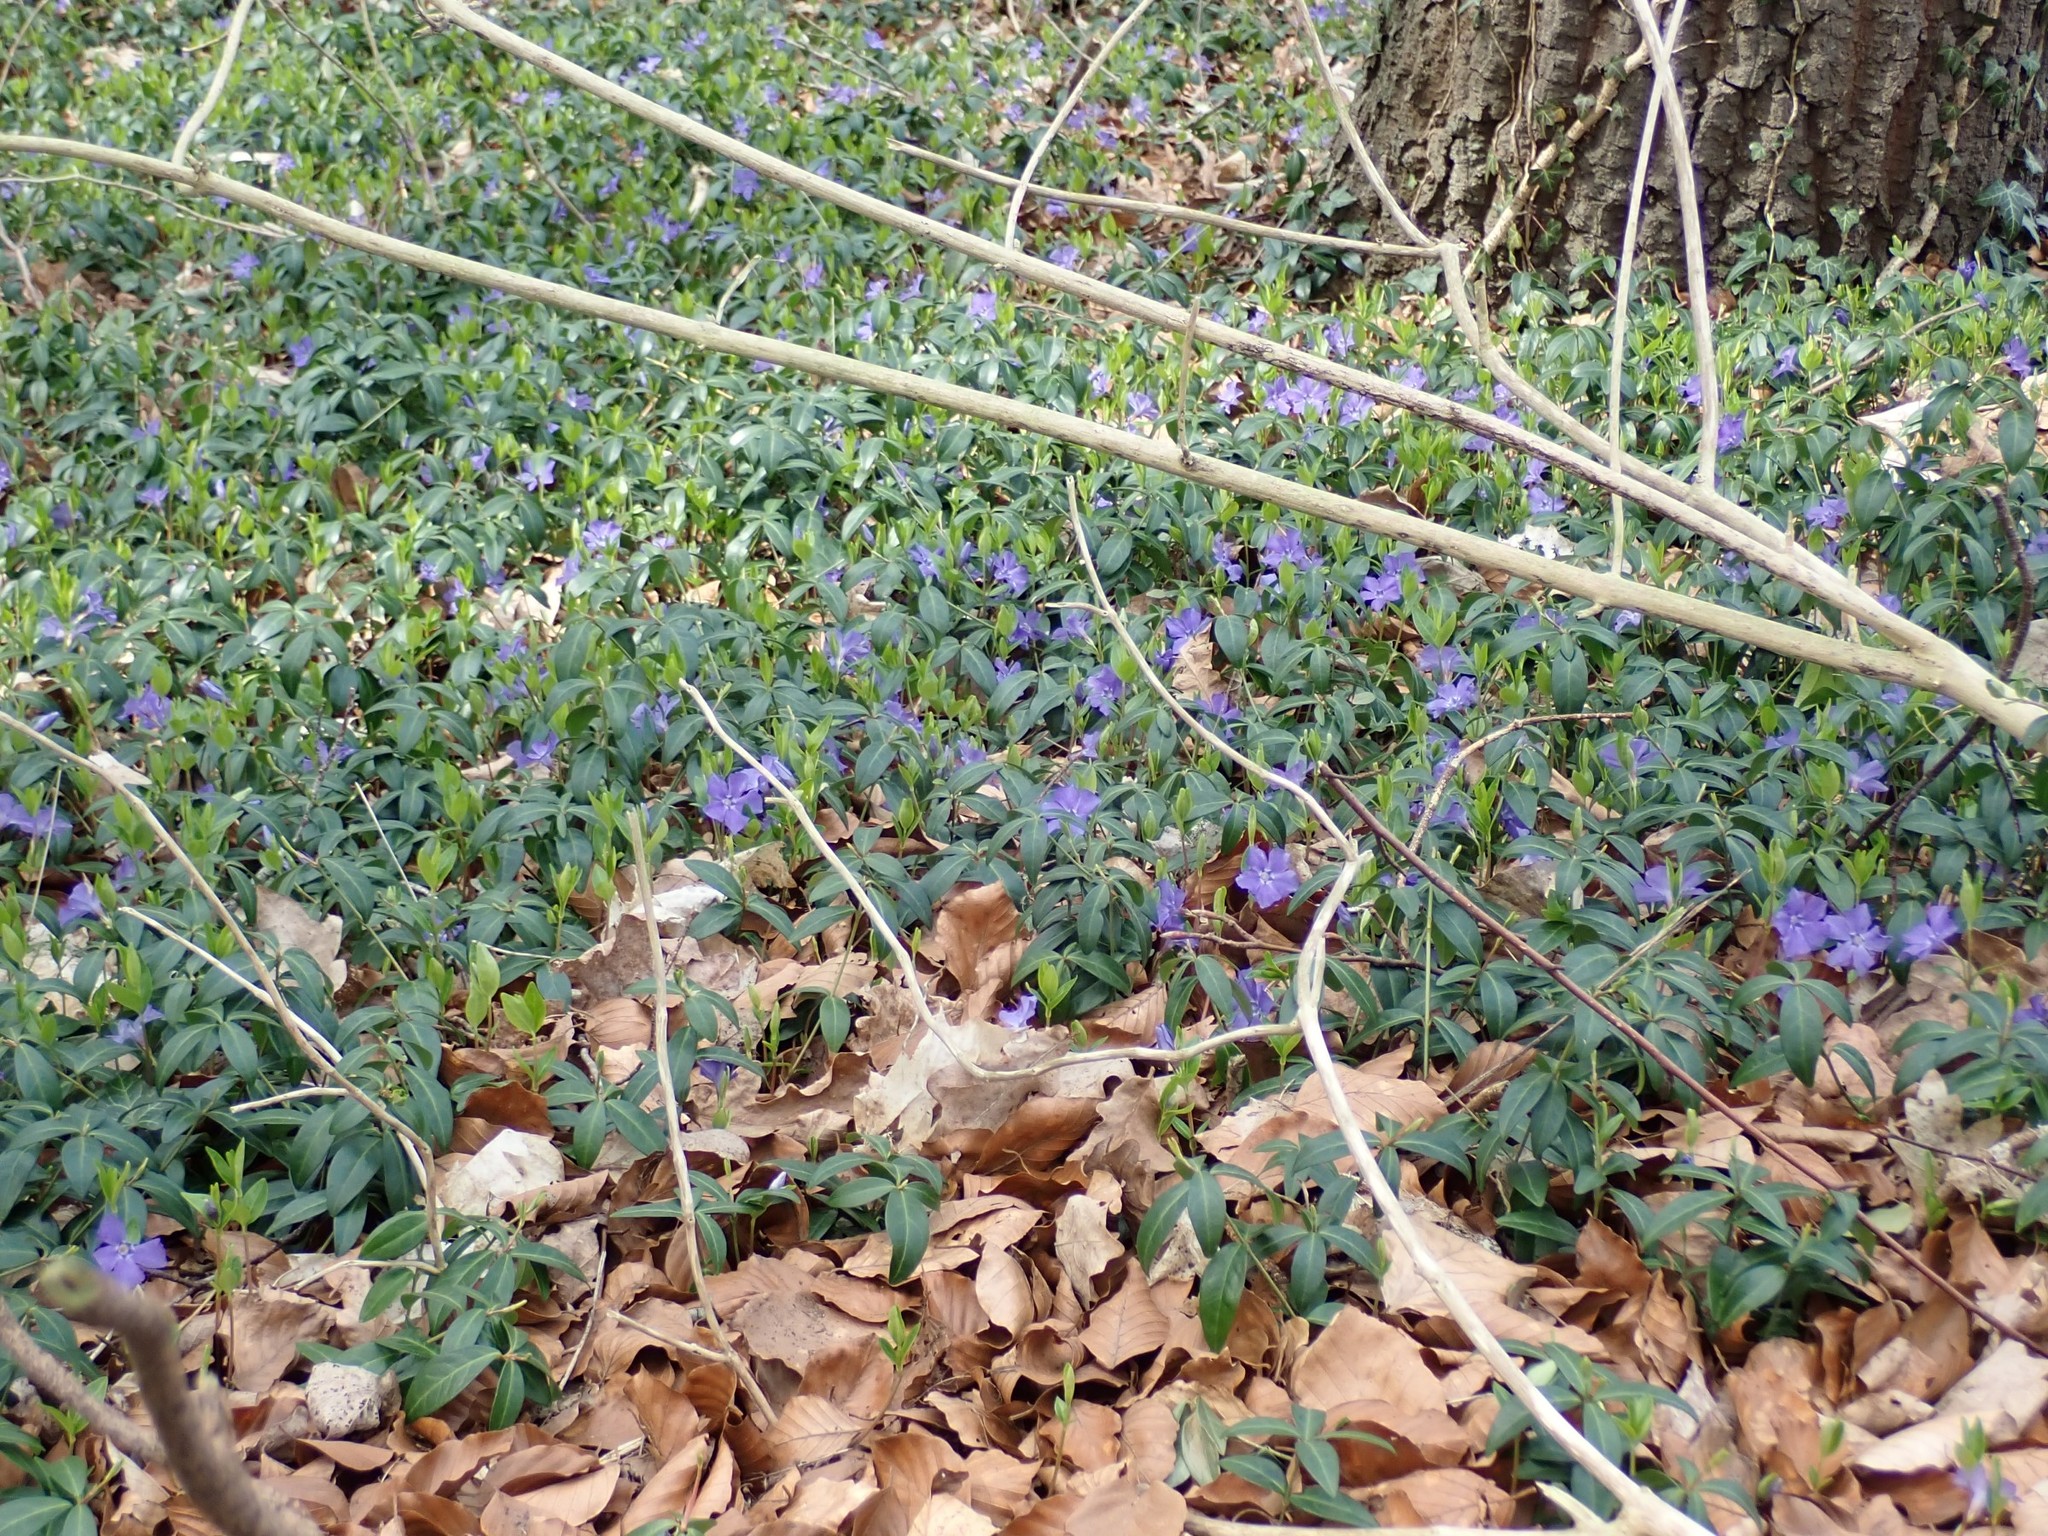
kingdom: Plantae
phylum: Tracheophyta
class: Magnoliopsida
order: Gentianales
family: Apocynaceae
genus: Vinca
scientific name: Vinca minor
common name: Lesser periwinkle
